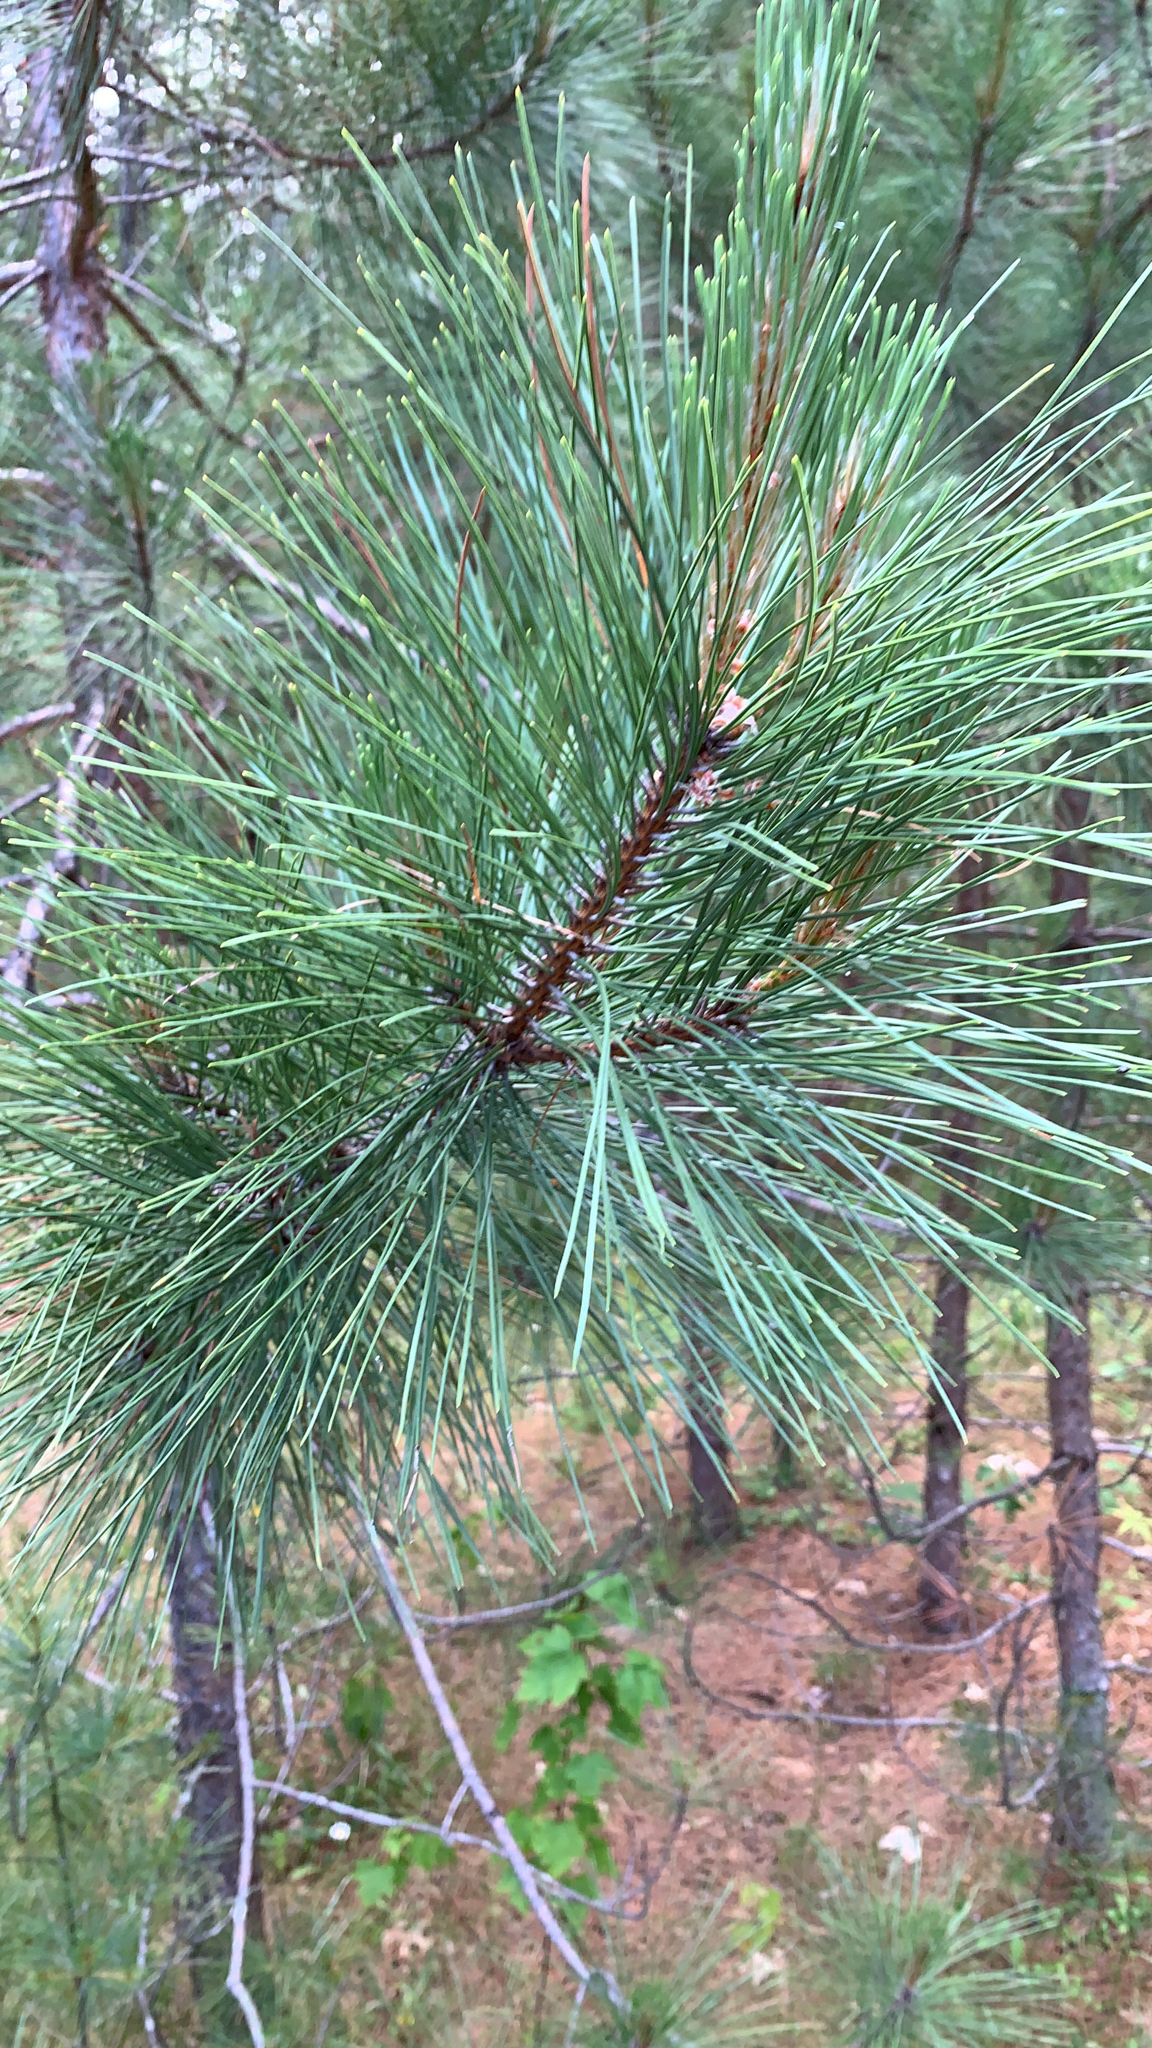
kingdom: Plantae
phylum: Tracheophyta
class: Pinopsida
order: Pinales
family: Pinaceae
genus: Pinus
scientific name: Pinus resinosa
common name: Norway pine
